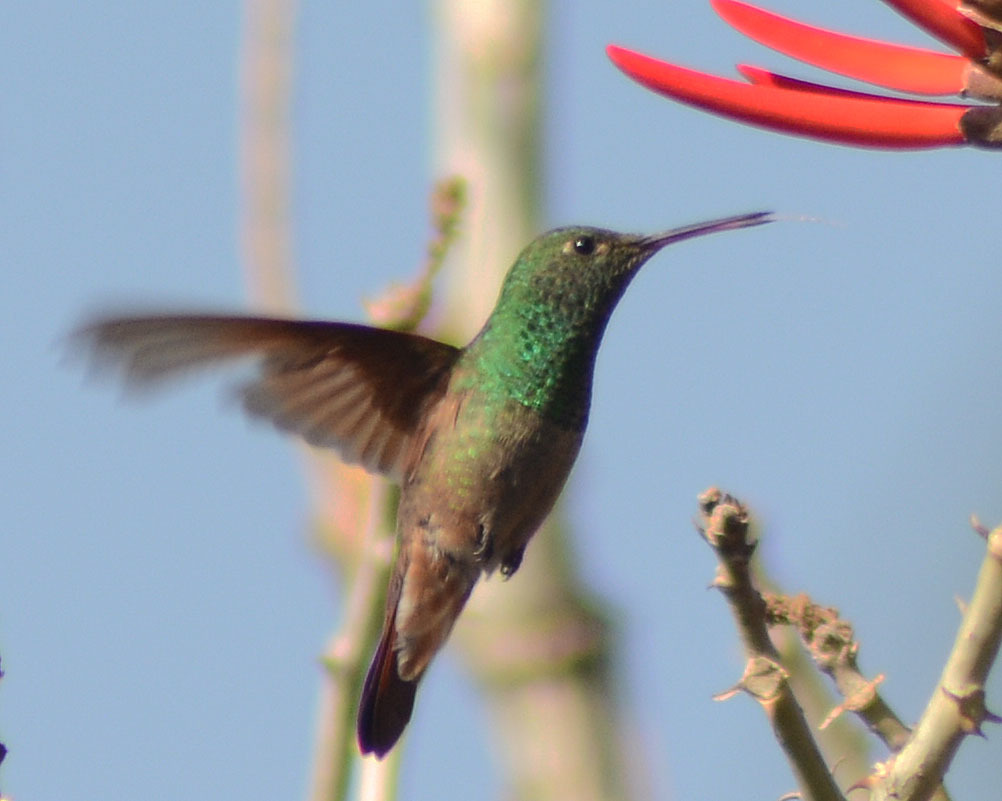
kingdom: Animalia
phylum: Chordata
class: Aves
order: Apodiformes
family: Trochilidae
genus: Saucerottia
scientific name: Saucerottia beryllina
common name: Berylline hummingbird
